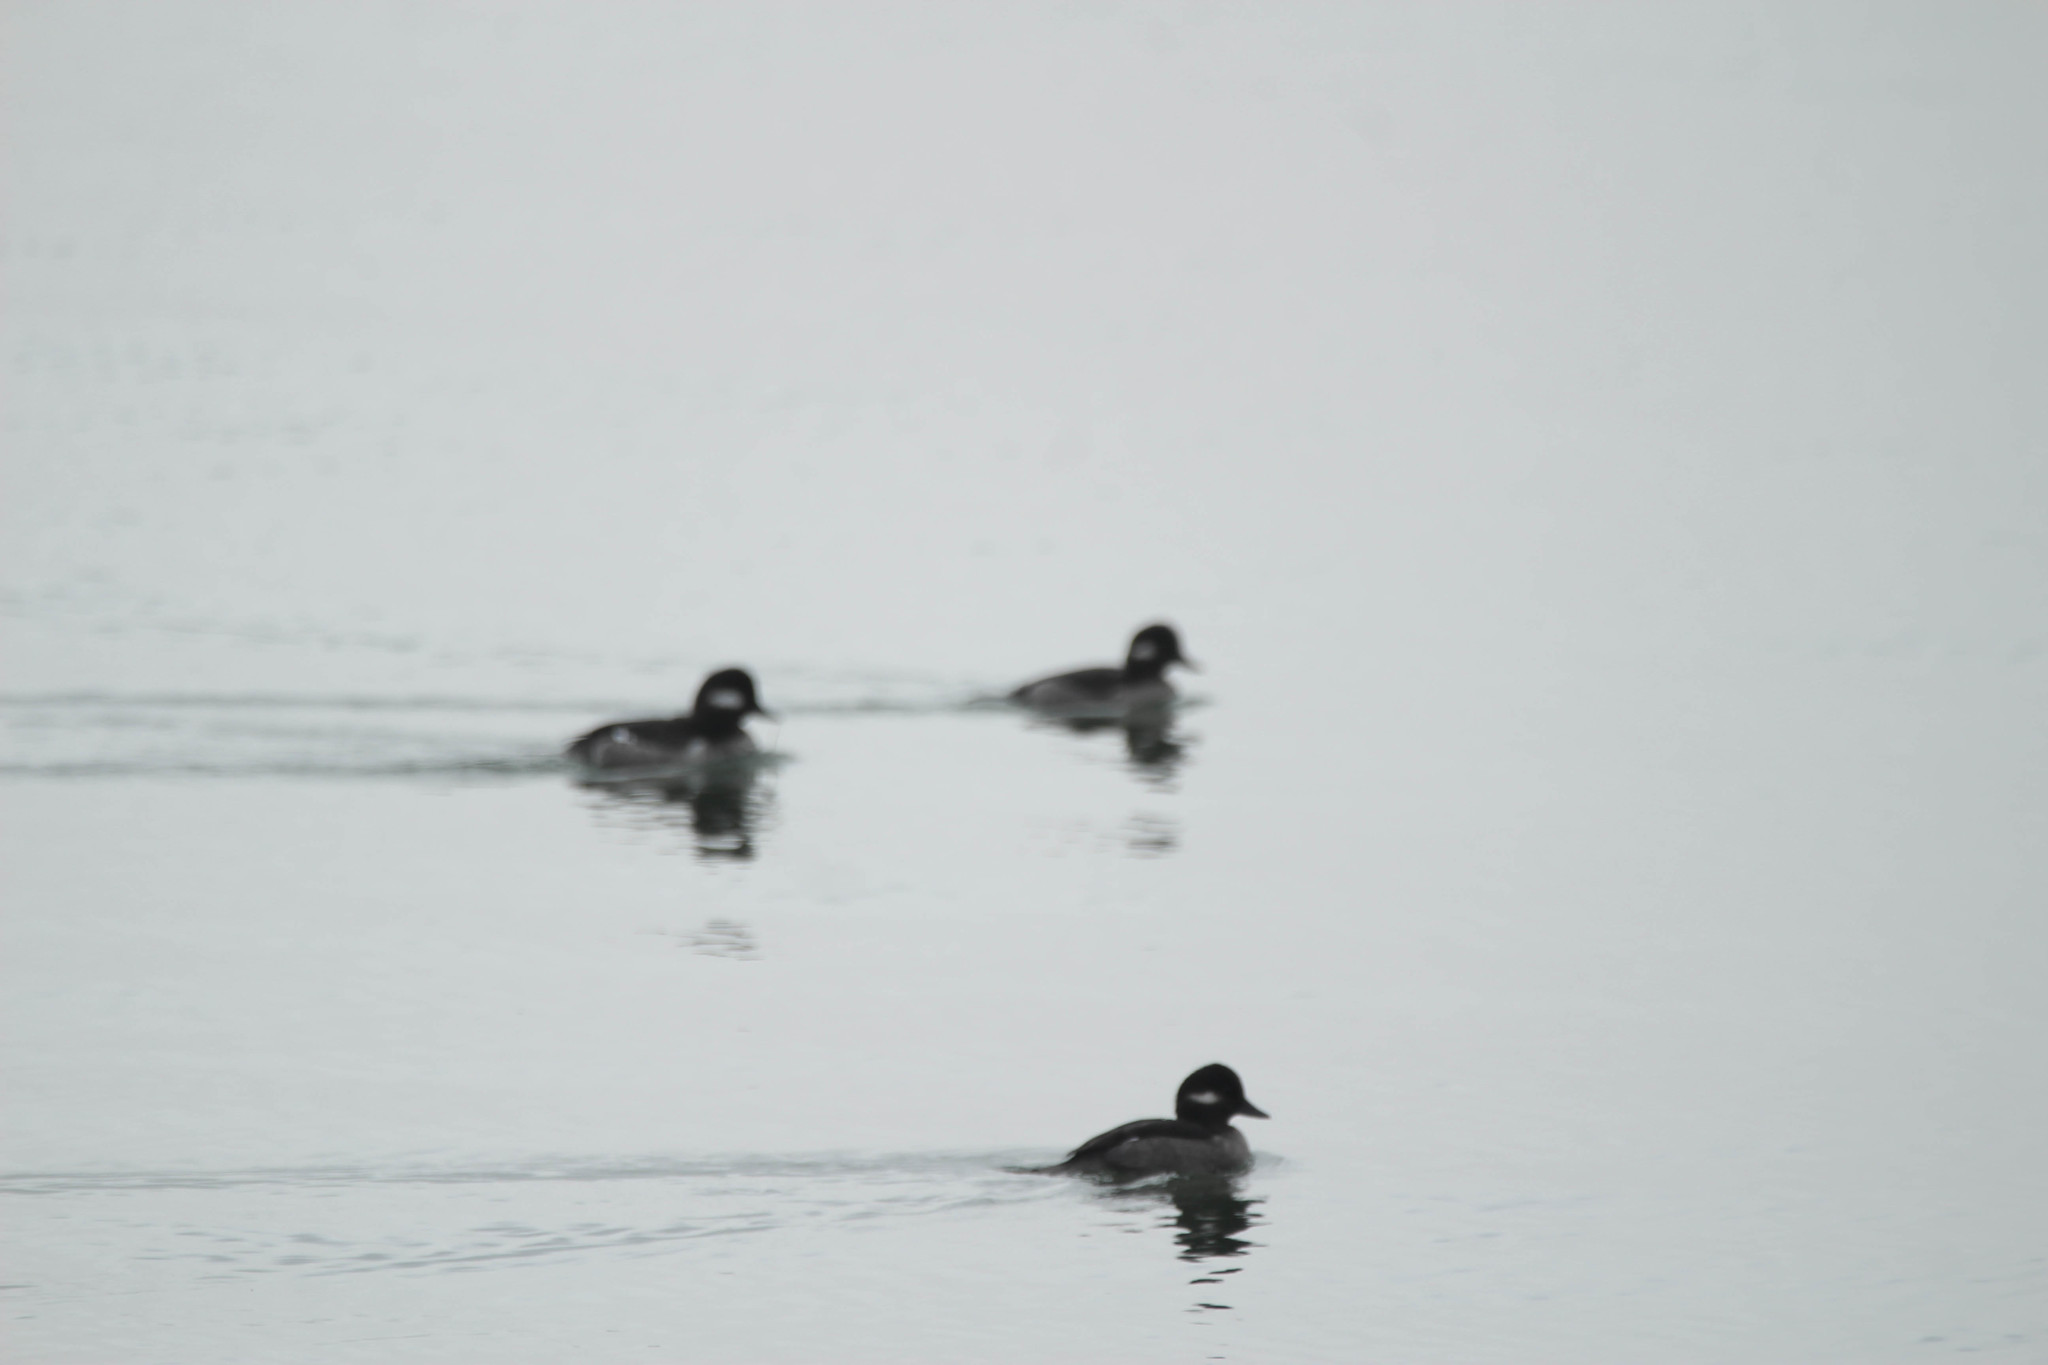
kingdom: Animalia
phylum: Chordata
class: Aves
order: Anseriformes
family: Anatidae
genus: Bucephala
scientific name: Bucephala albeola
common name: Bufflehead
